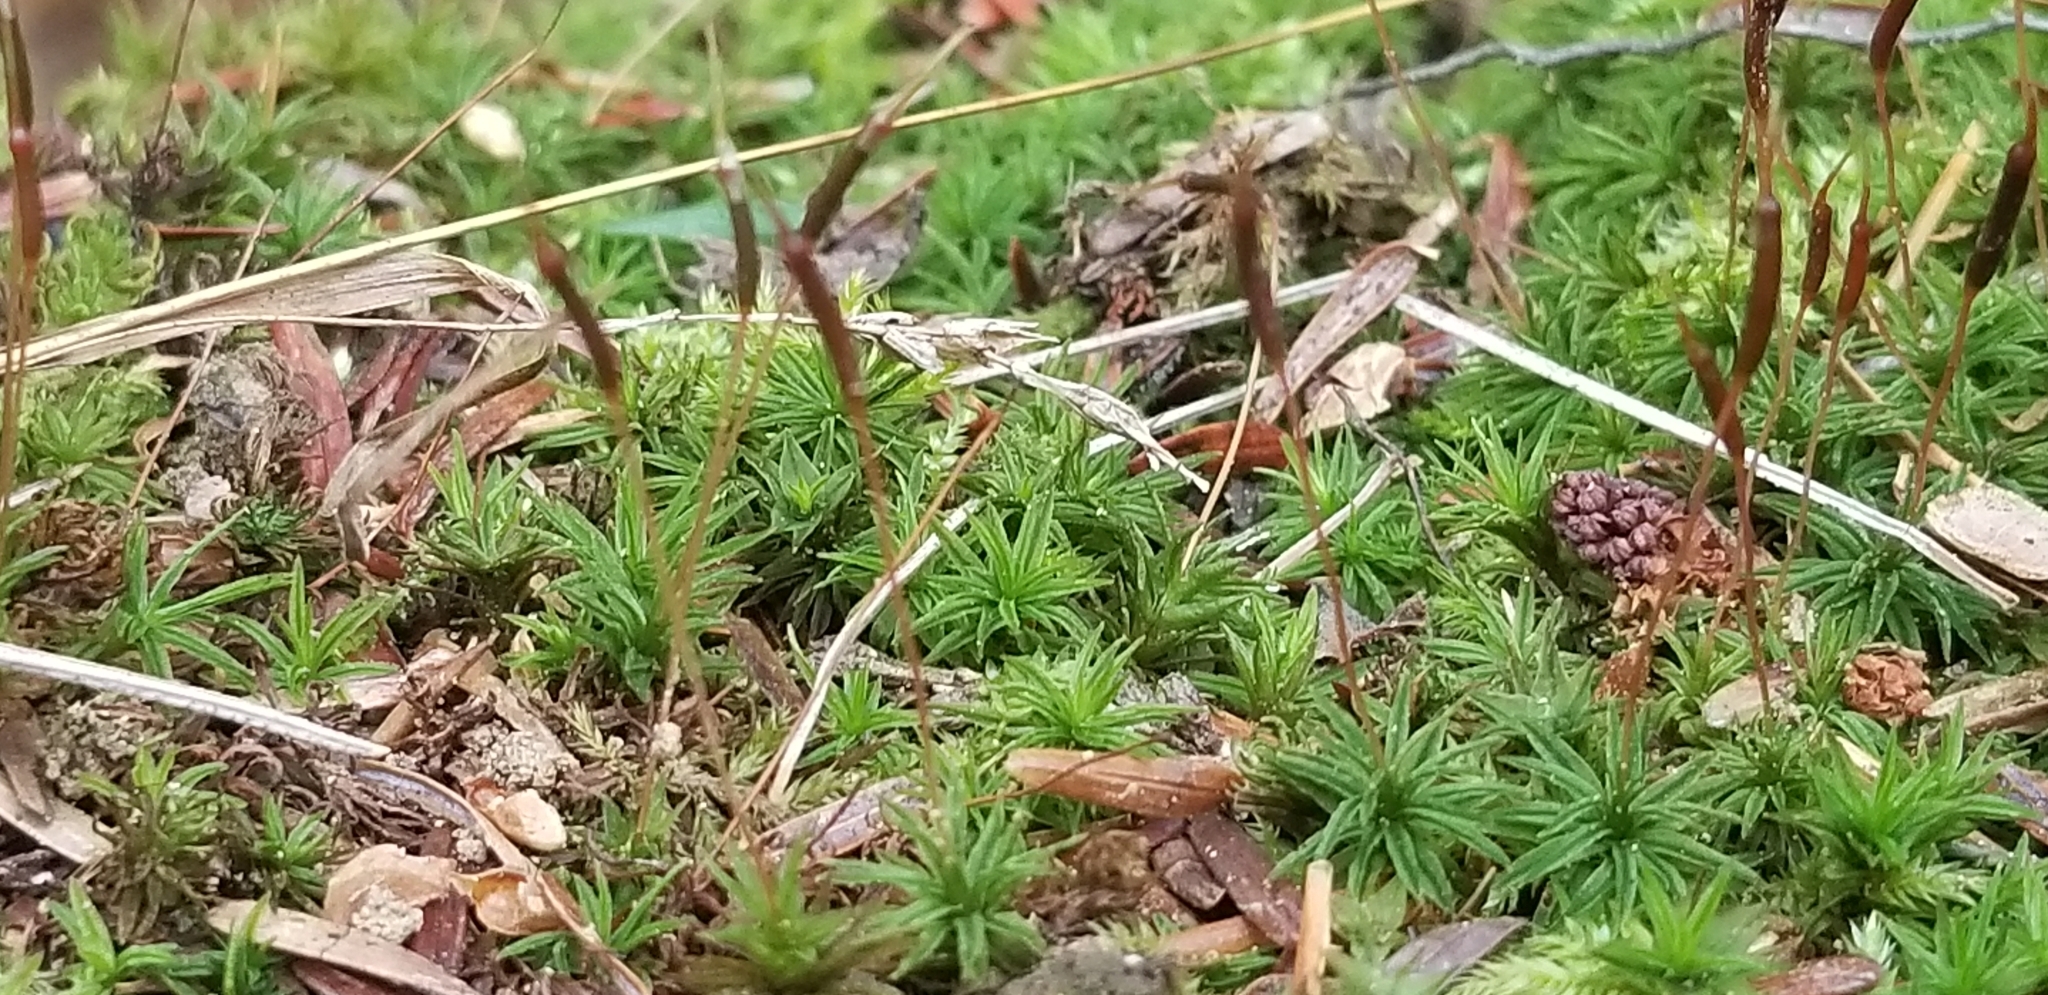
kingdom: Plantae
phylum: Bryophyta
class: Polytrichopsida
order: Polytrichales
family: Polytrichaceae
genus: Atrichum
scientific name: Atrichum angustatum
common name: Lesser smoothcap
